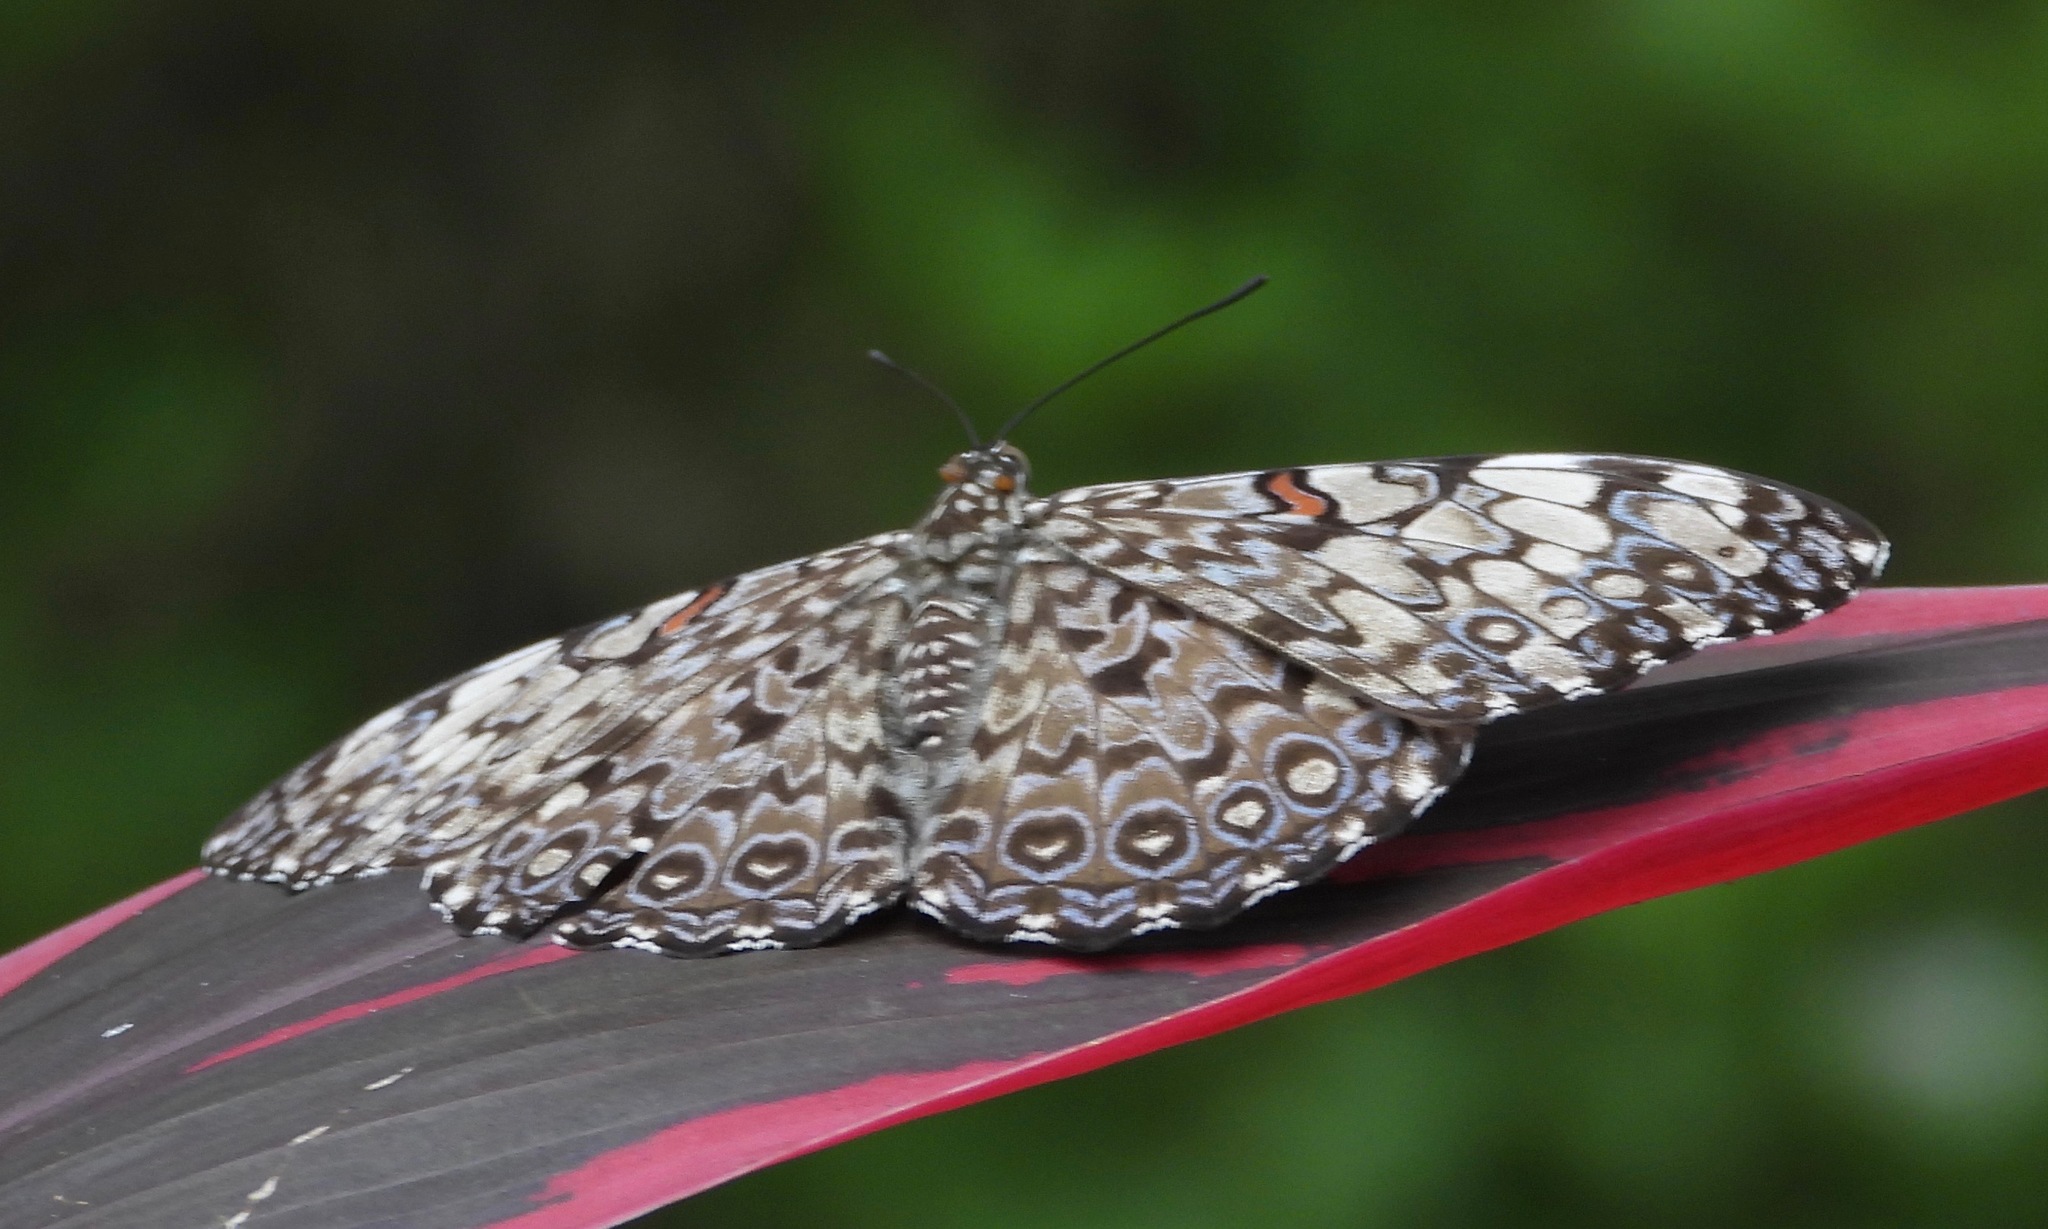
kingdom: Animalia
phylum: Arthropoda
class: Insecta
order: Lepidoptera
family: Nymphalidae
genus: Hamadryas
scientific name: Hamadryas feronia
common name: Variable cracker
